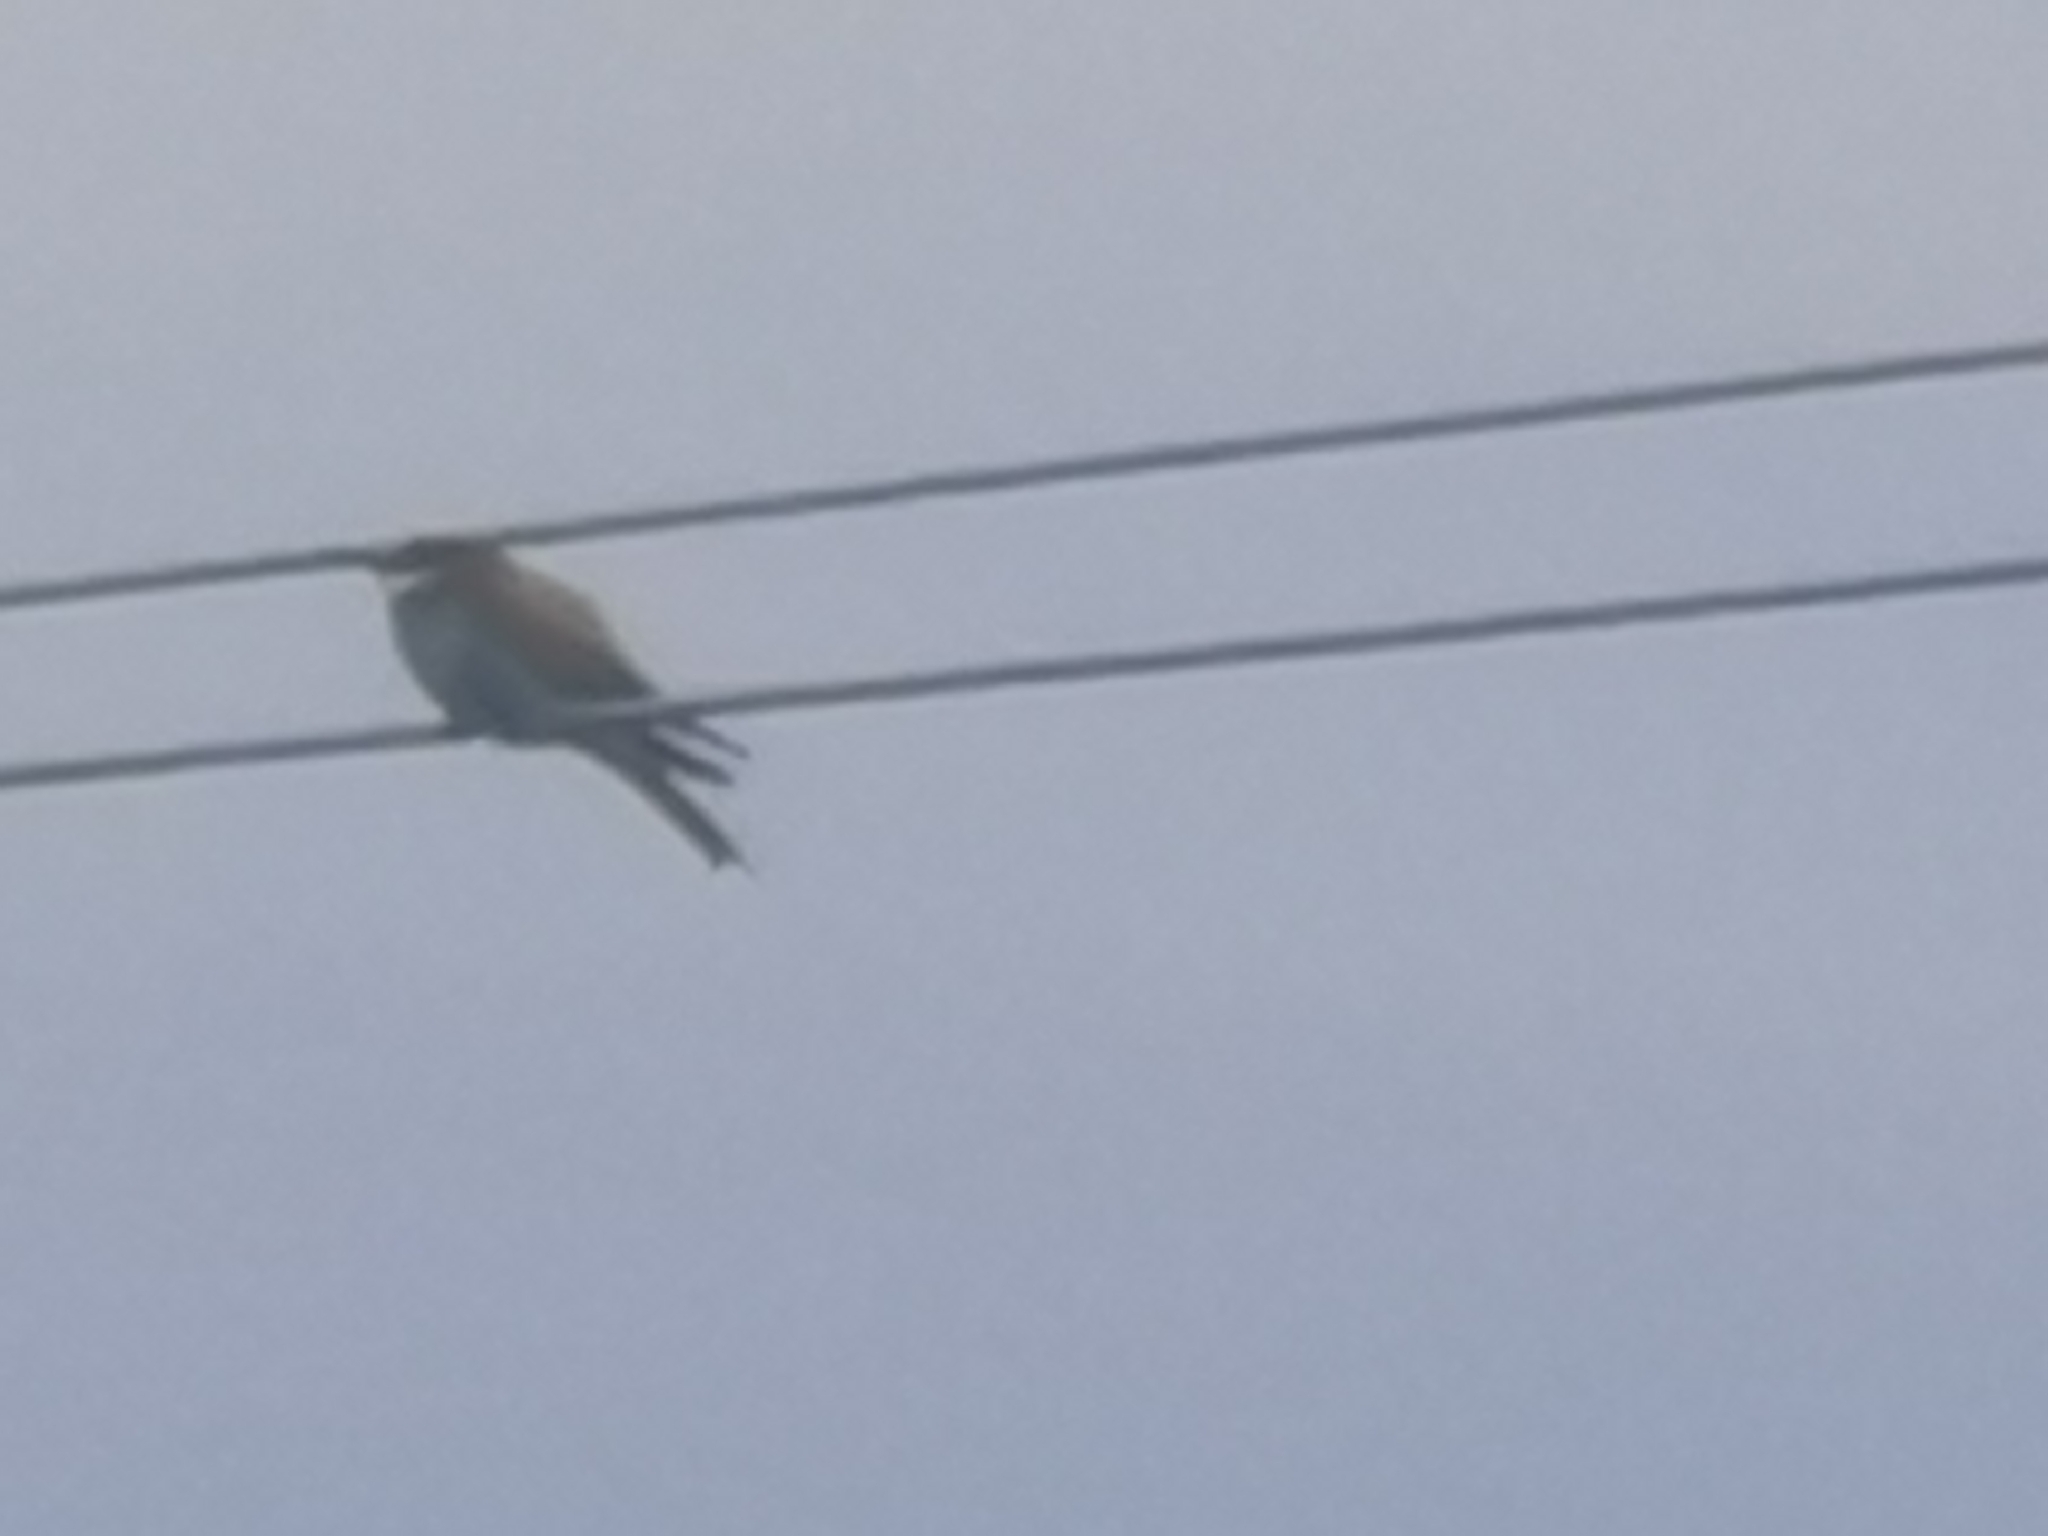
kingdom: Animalia
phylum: Chordata
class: Aves
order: Coraciiformes
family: Meropidae
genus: Merops
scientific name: Merops apiaster
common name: European bee-eater
